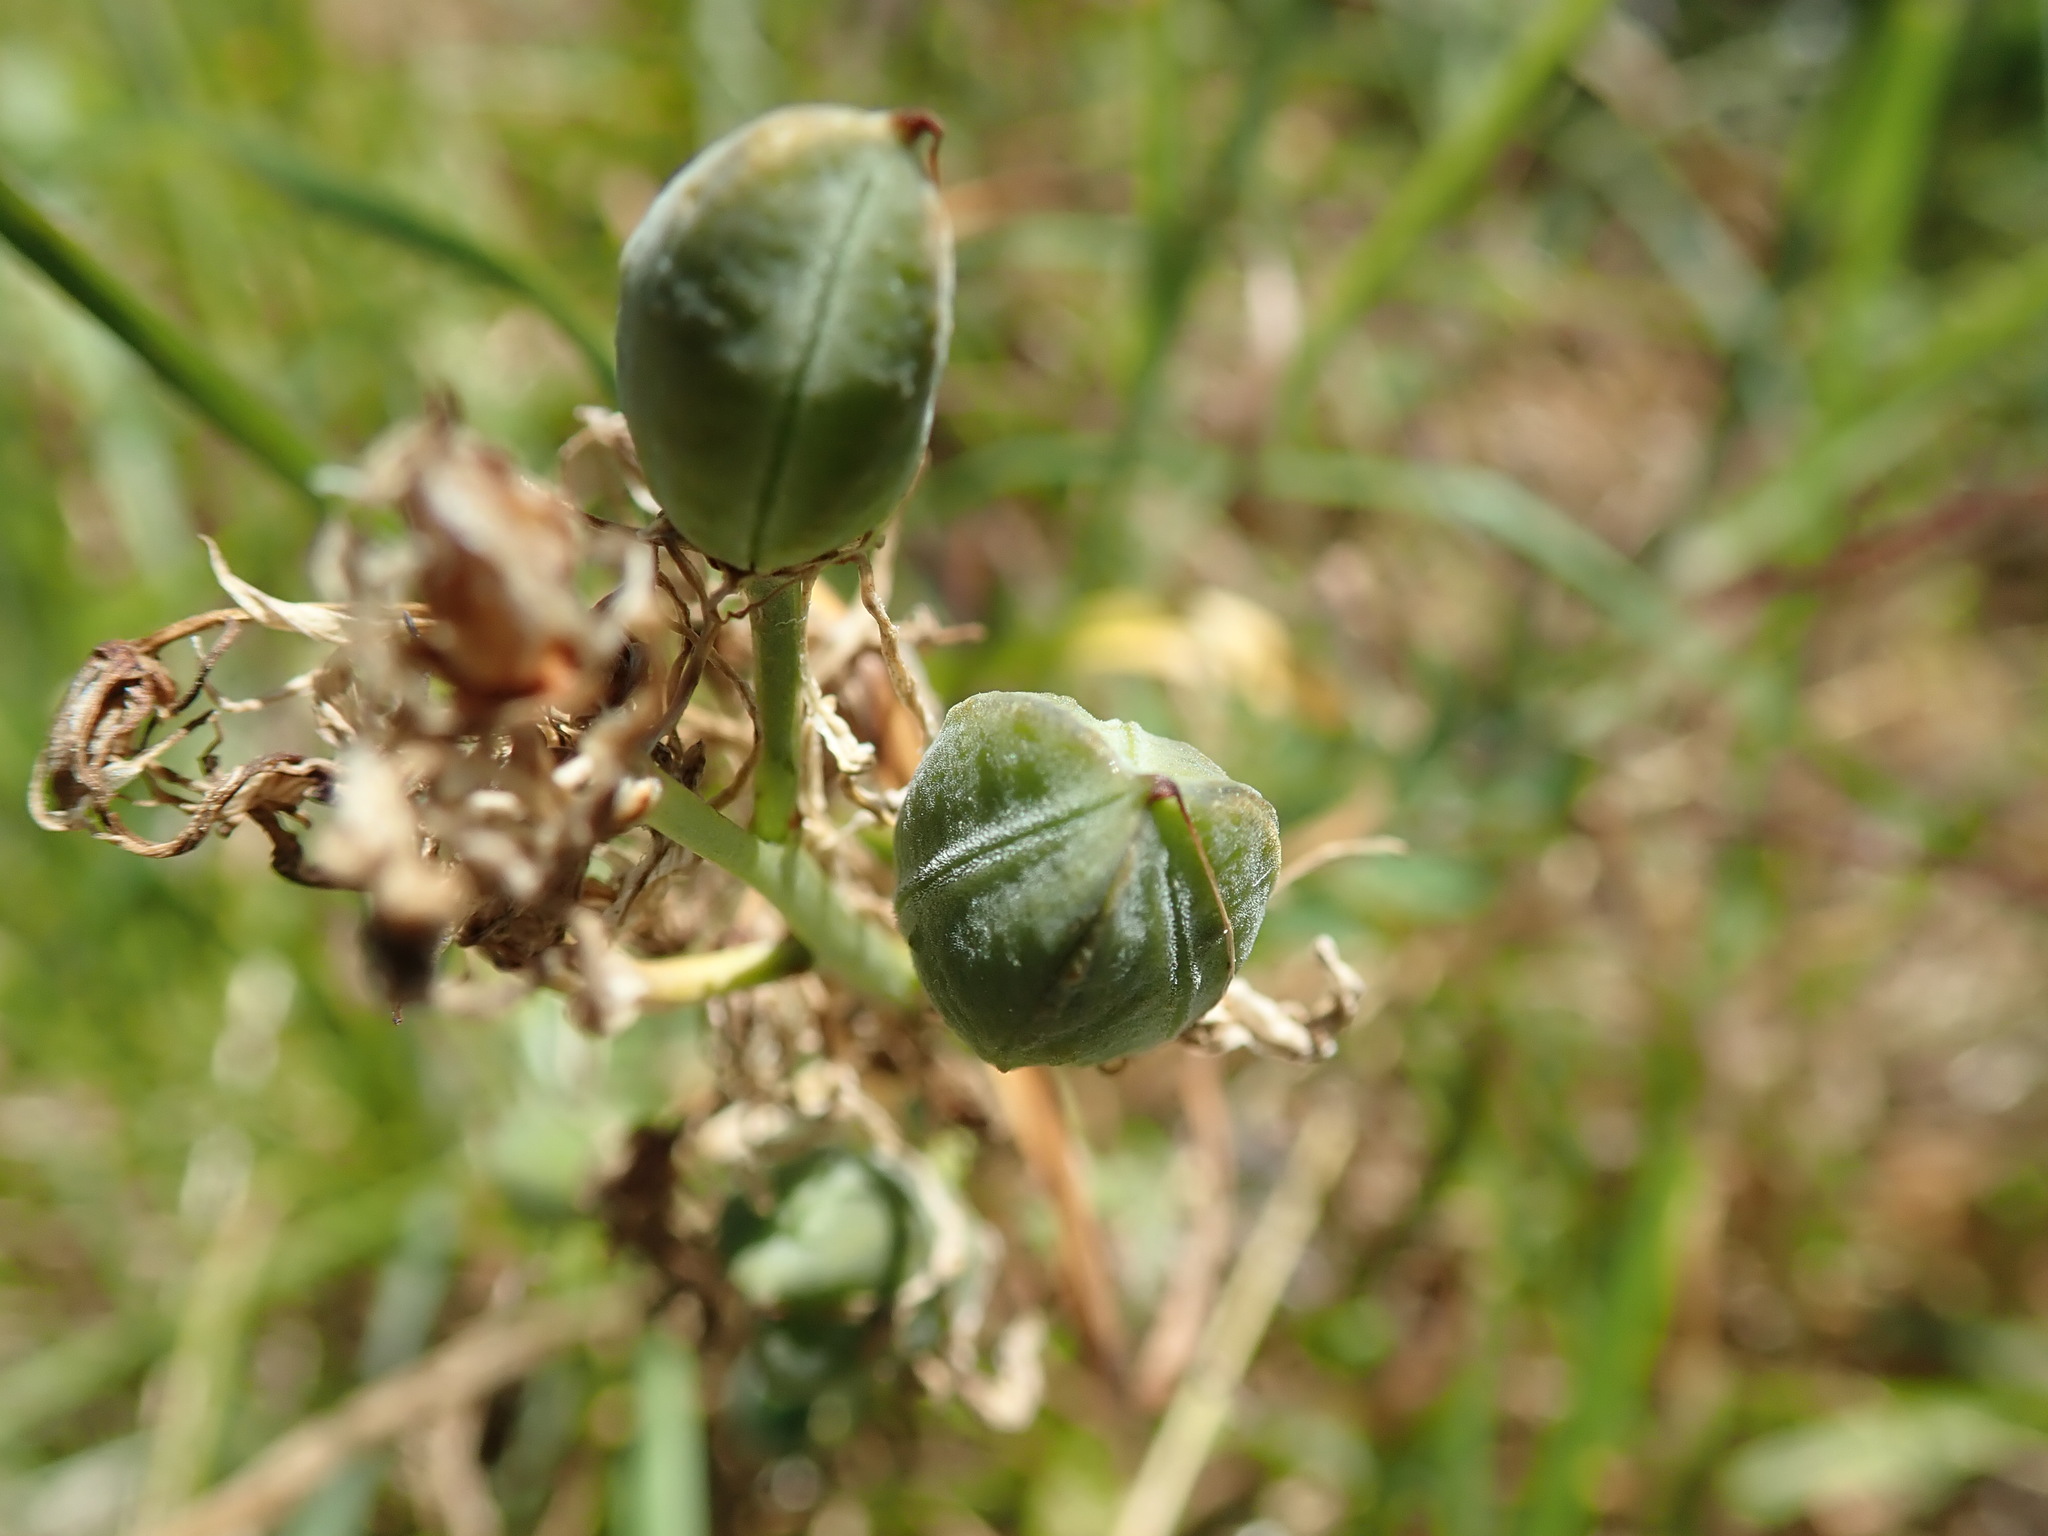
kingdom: Plantae
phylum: Tracheophyta
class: Liliopsida
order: Asparagales
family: Asparagaceae
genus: Camassia
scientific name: Camassia
